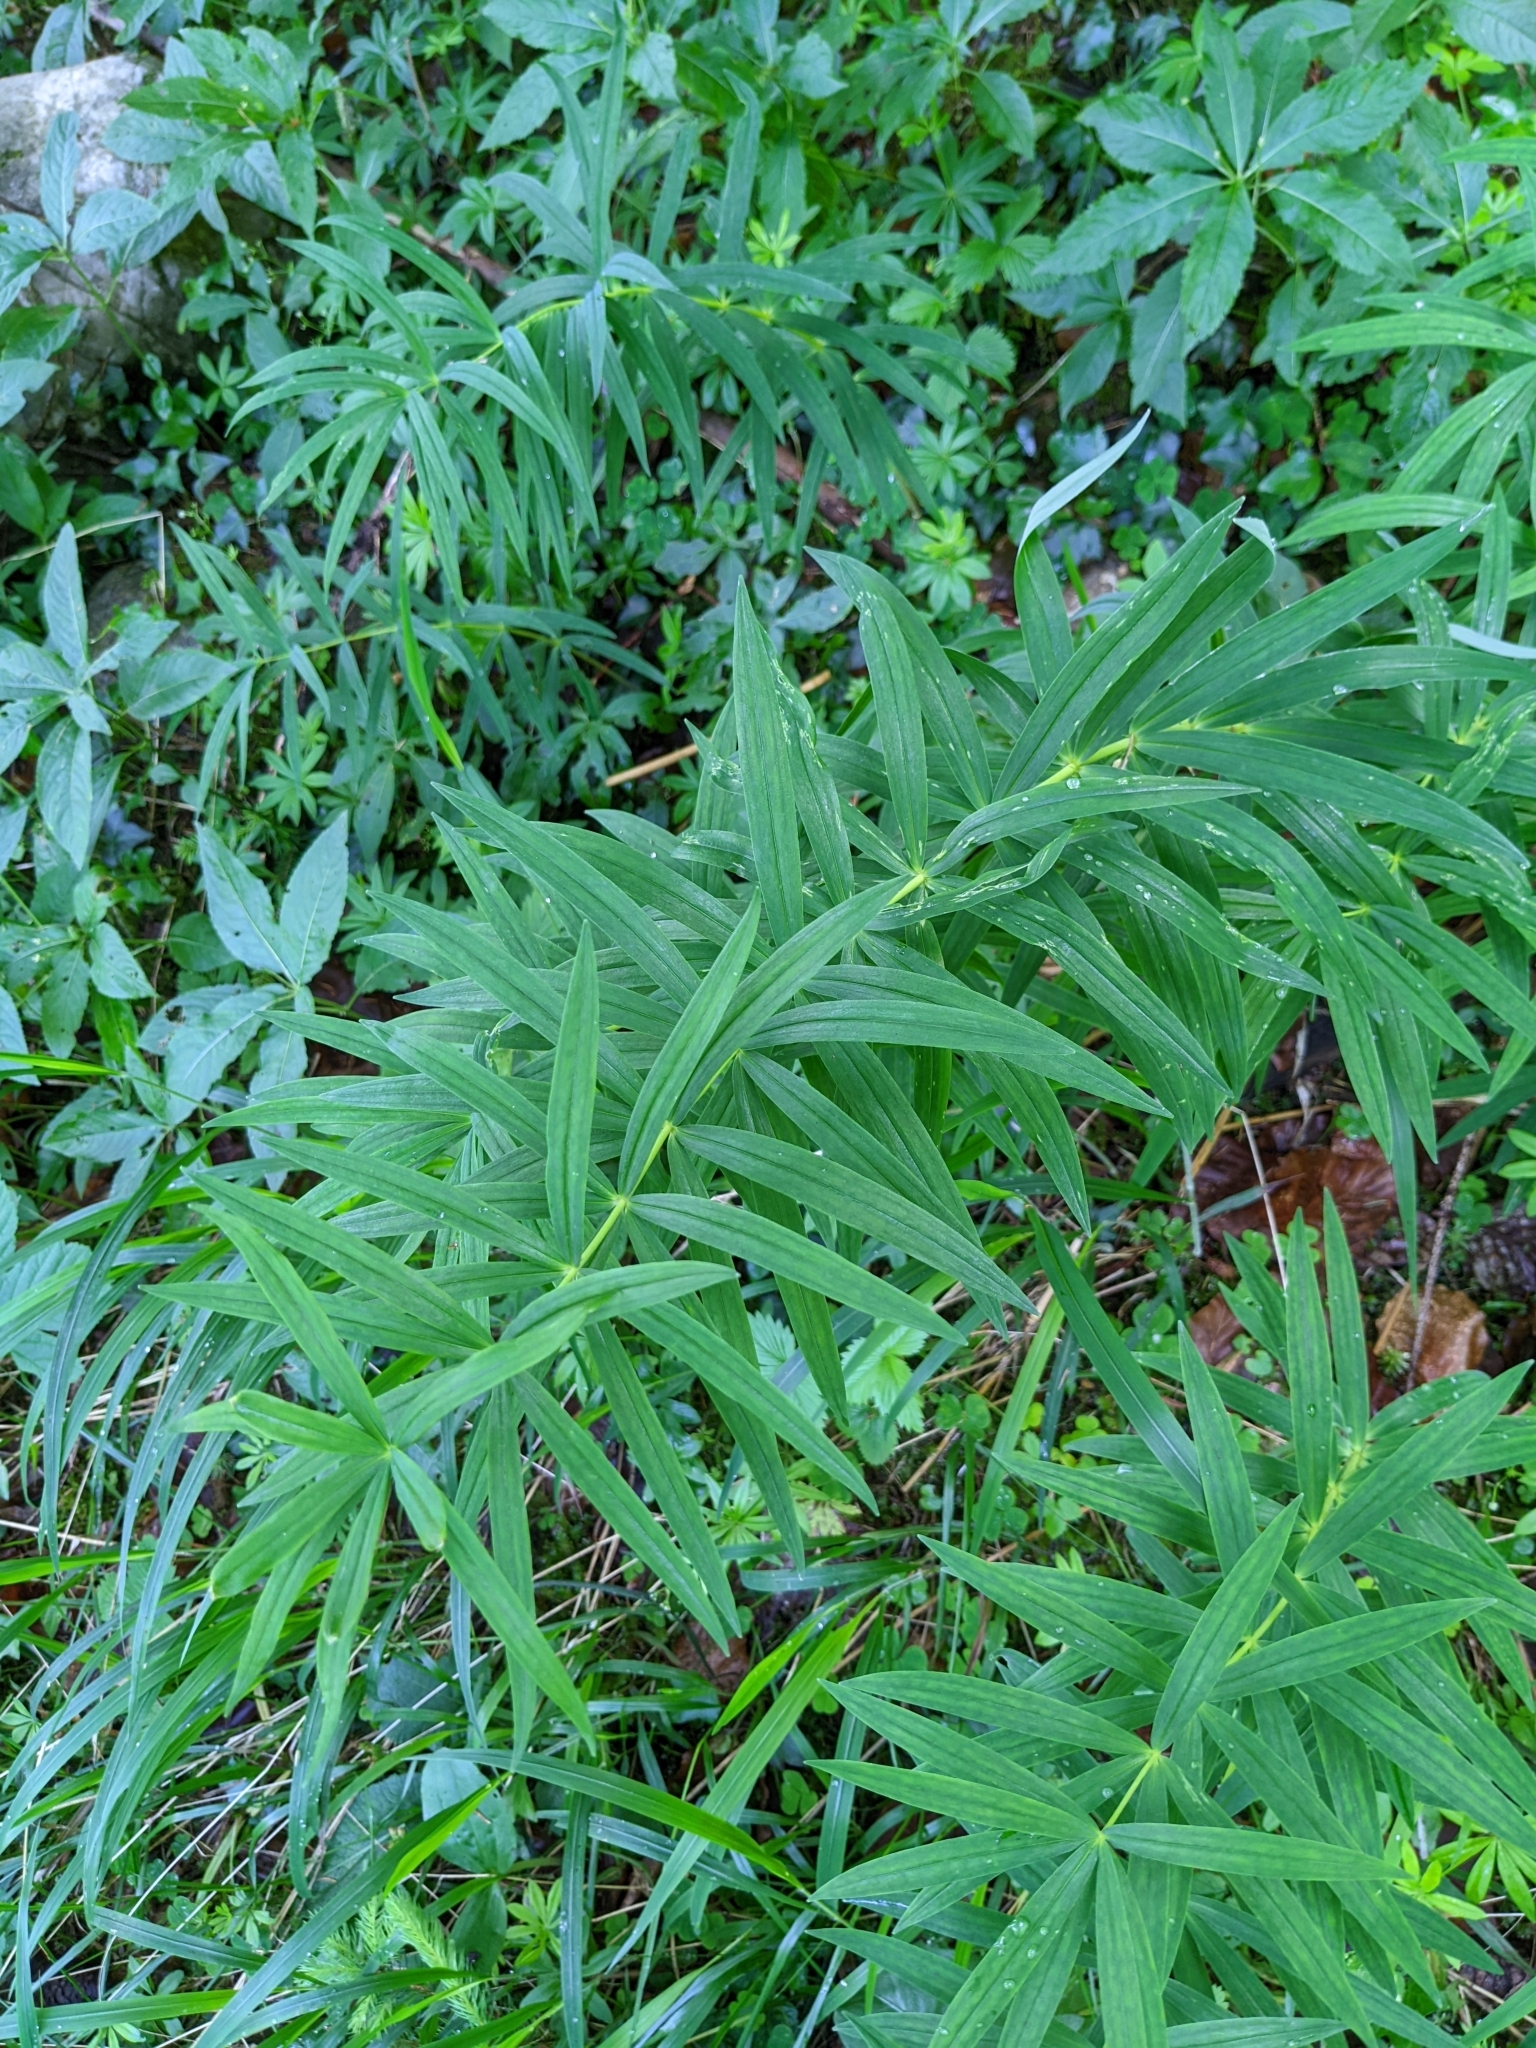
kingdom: Plantae
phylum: Tracheophyta
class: Liliopsida
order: Asparagales
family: Asparagaceae
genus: Polygonatum
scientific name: Polygonatum verticillatum
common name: Whorled solomon's-seal
